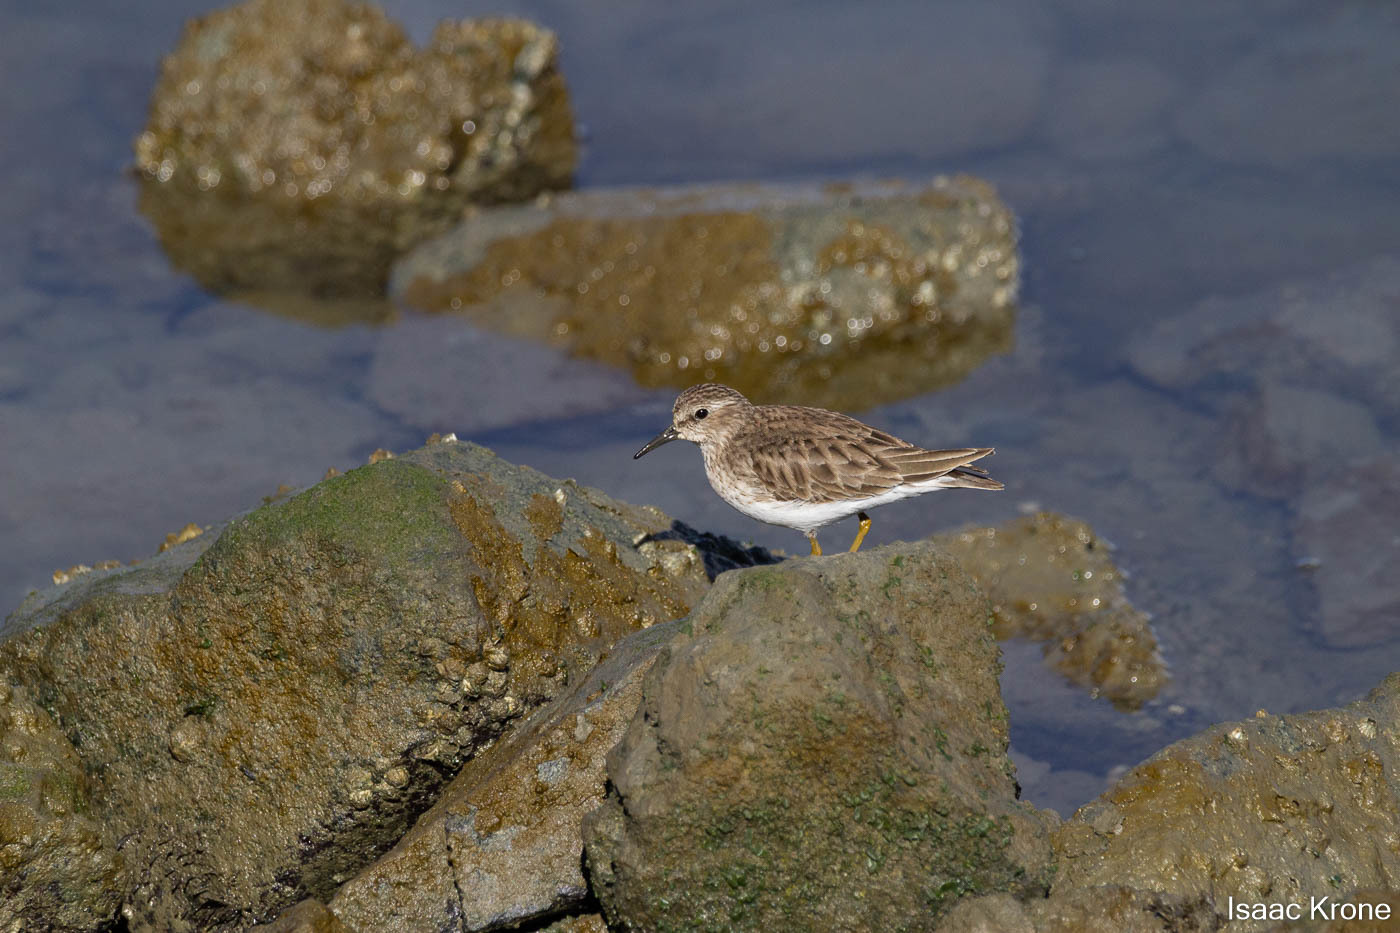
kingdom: Animalia
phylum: Chordata
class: Aves
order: Charadriiformes
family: Scolopacidae
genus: Calidris
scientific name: Calidris minutilla
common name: Least sandpiper
